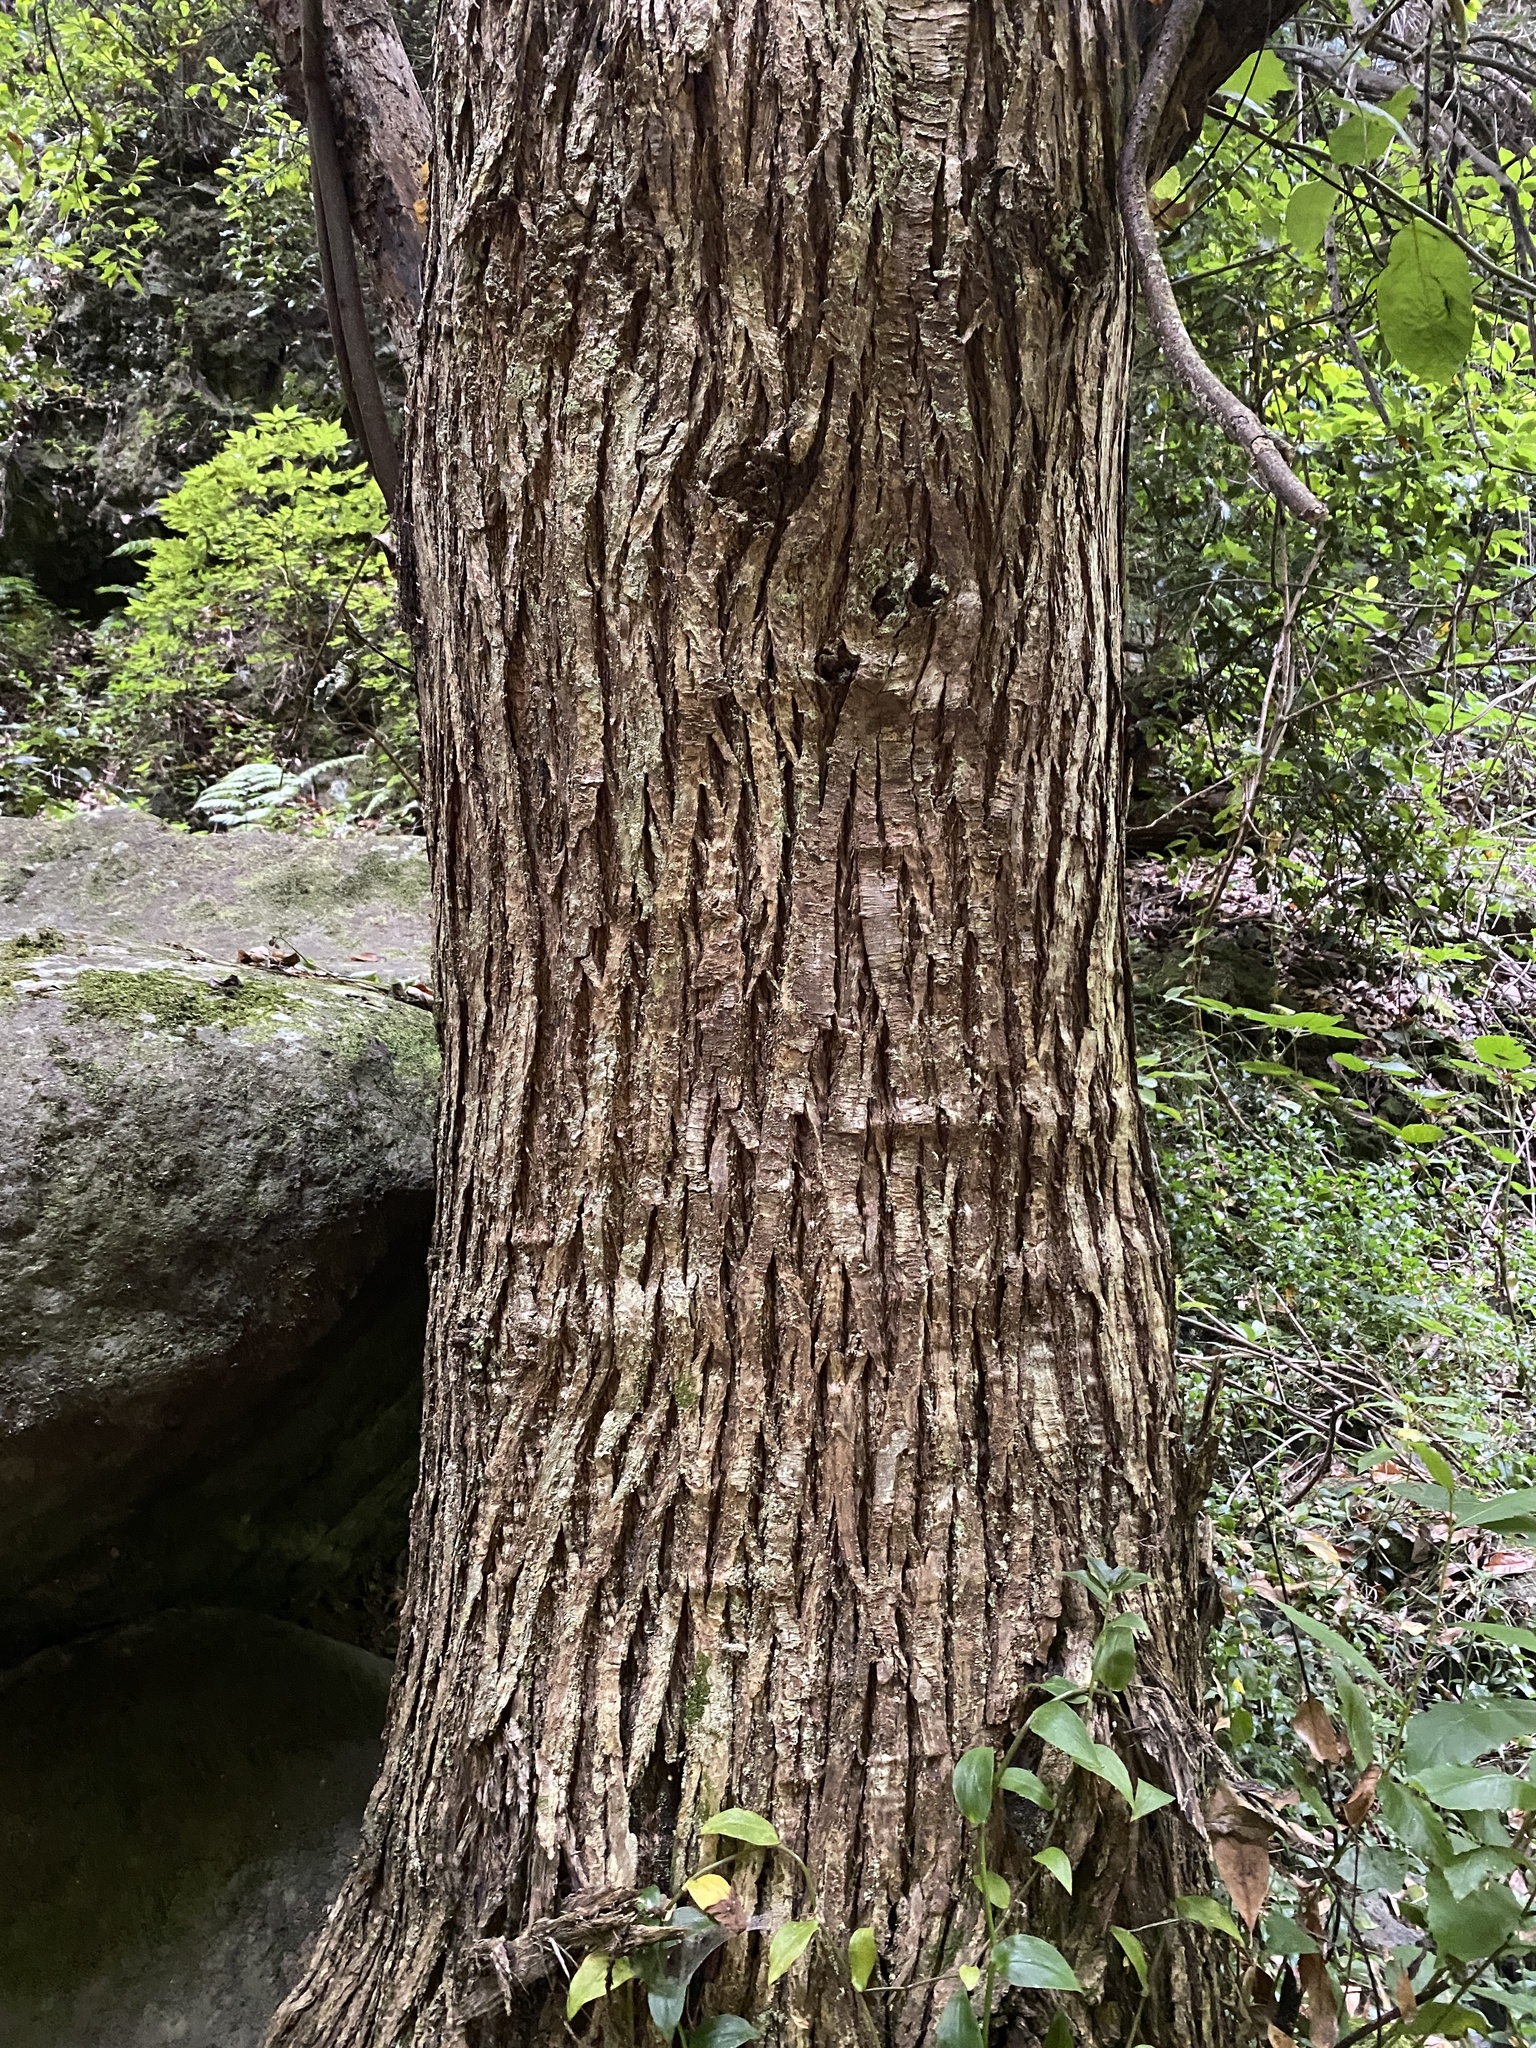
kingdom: Plantae
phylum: Tracheophyta
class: Magnoliopsida
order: Fagales
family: Fagaceae
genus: Castanea
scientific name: Castanea sativa
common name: Sweet chestnut
